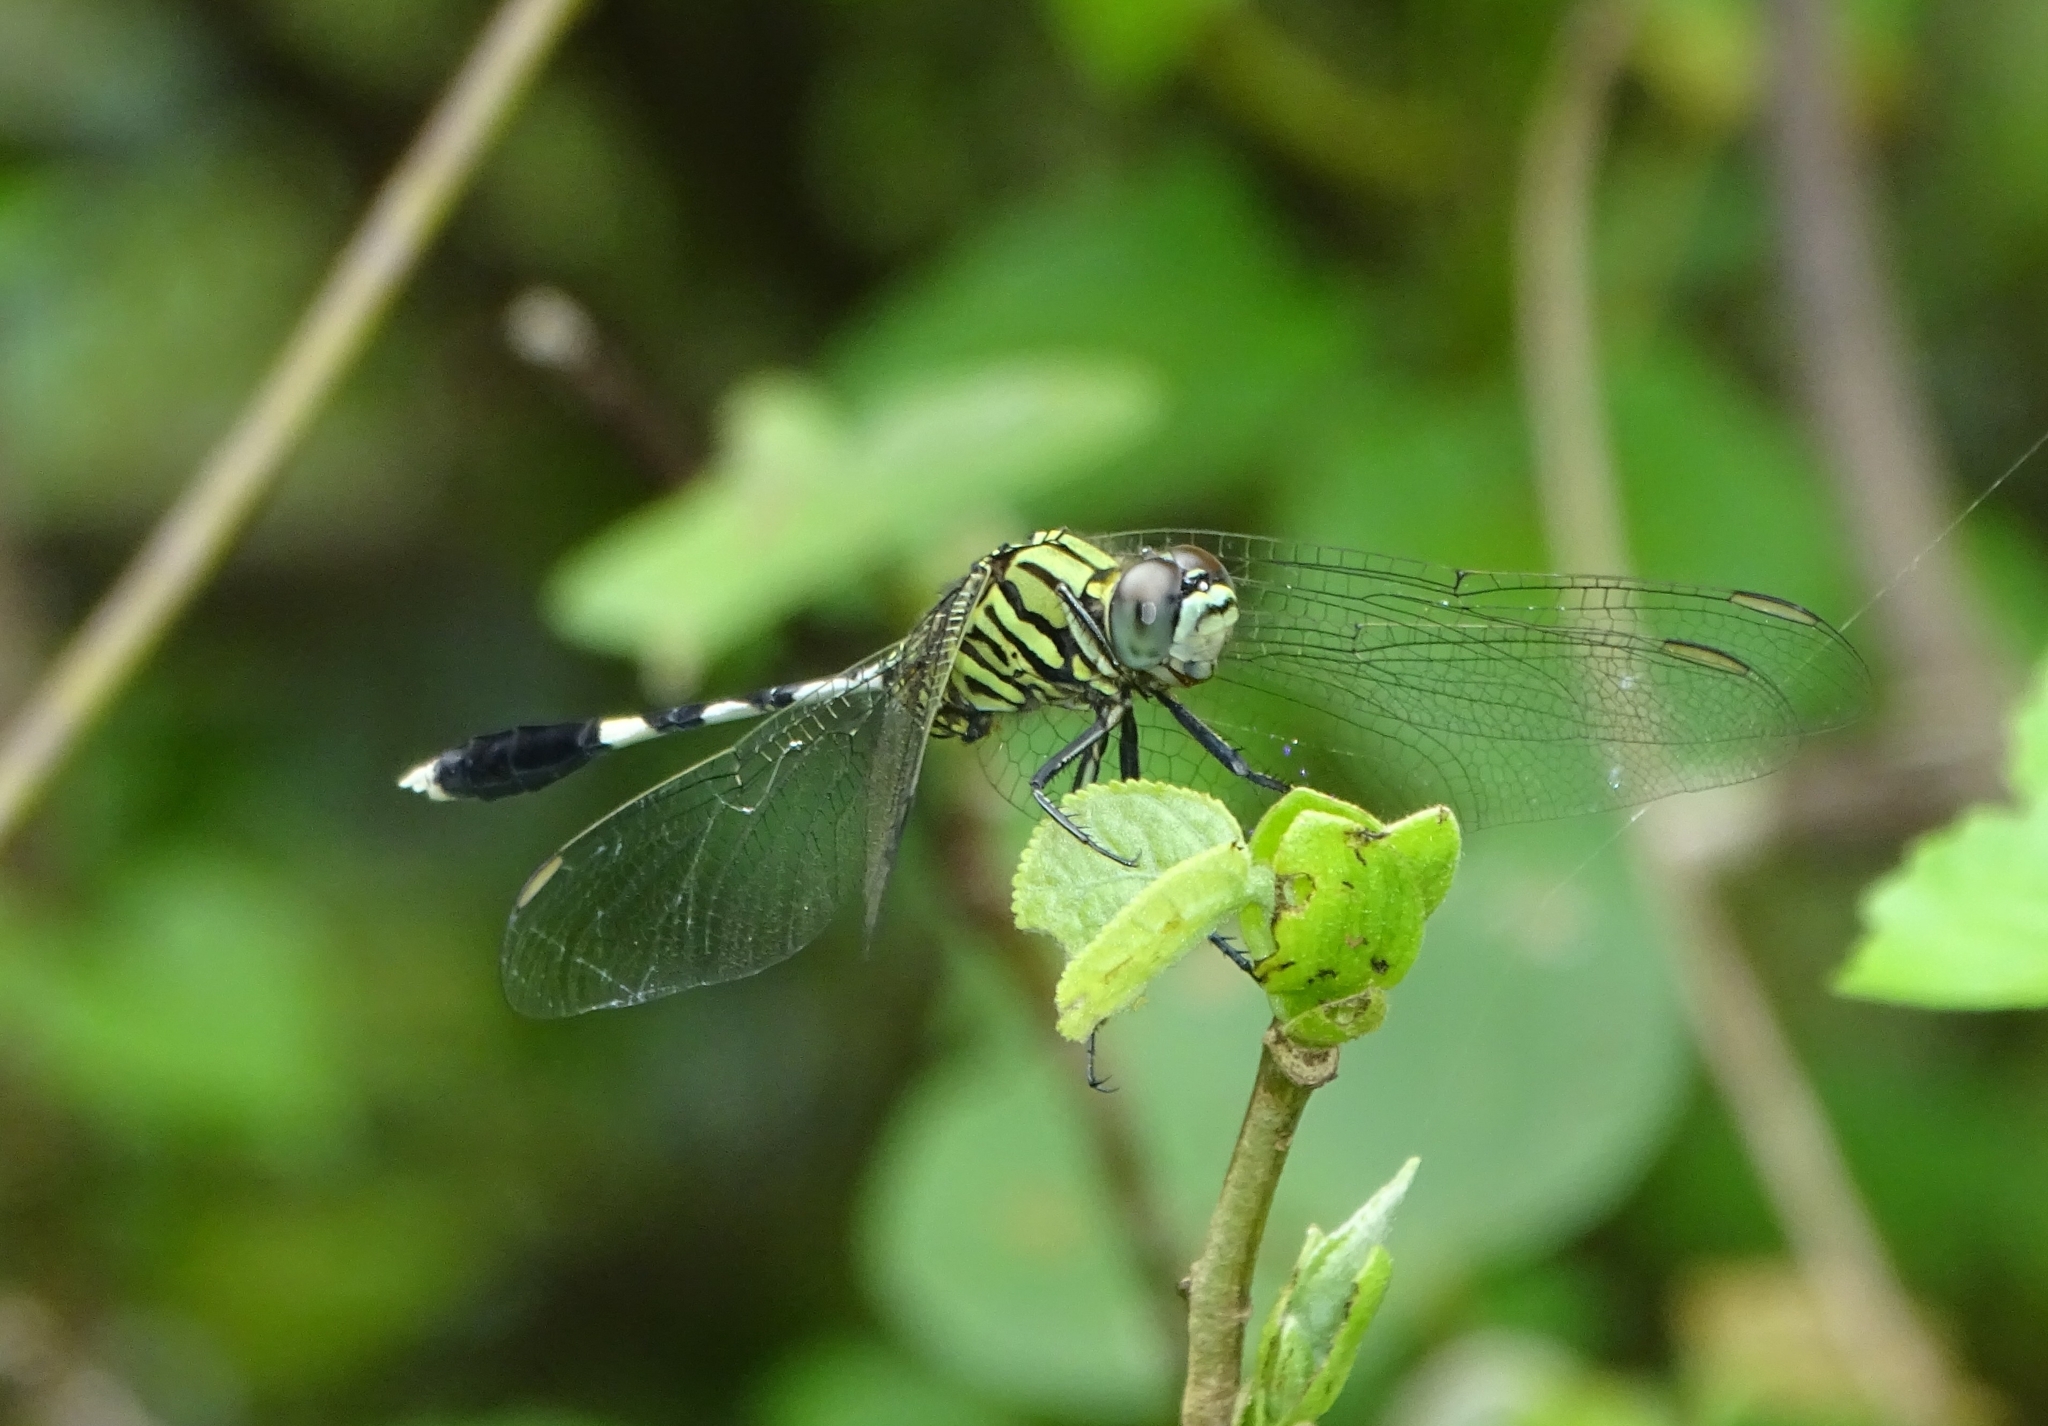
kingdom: Animalia
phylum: Arthropoda
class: Insecta
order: Odonata
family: Libellulidae
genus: Orthetrum
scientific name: Orthetrum sabina
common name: Slender skimmer
